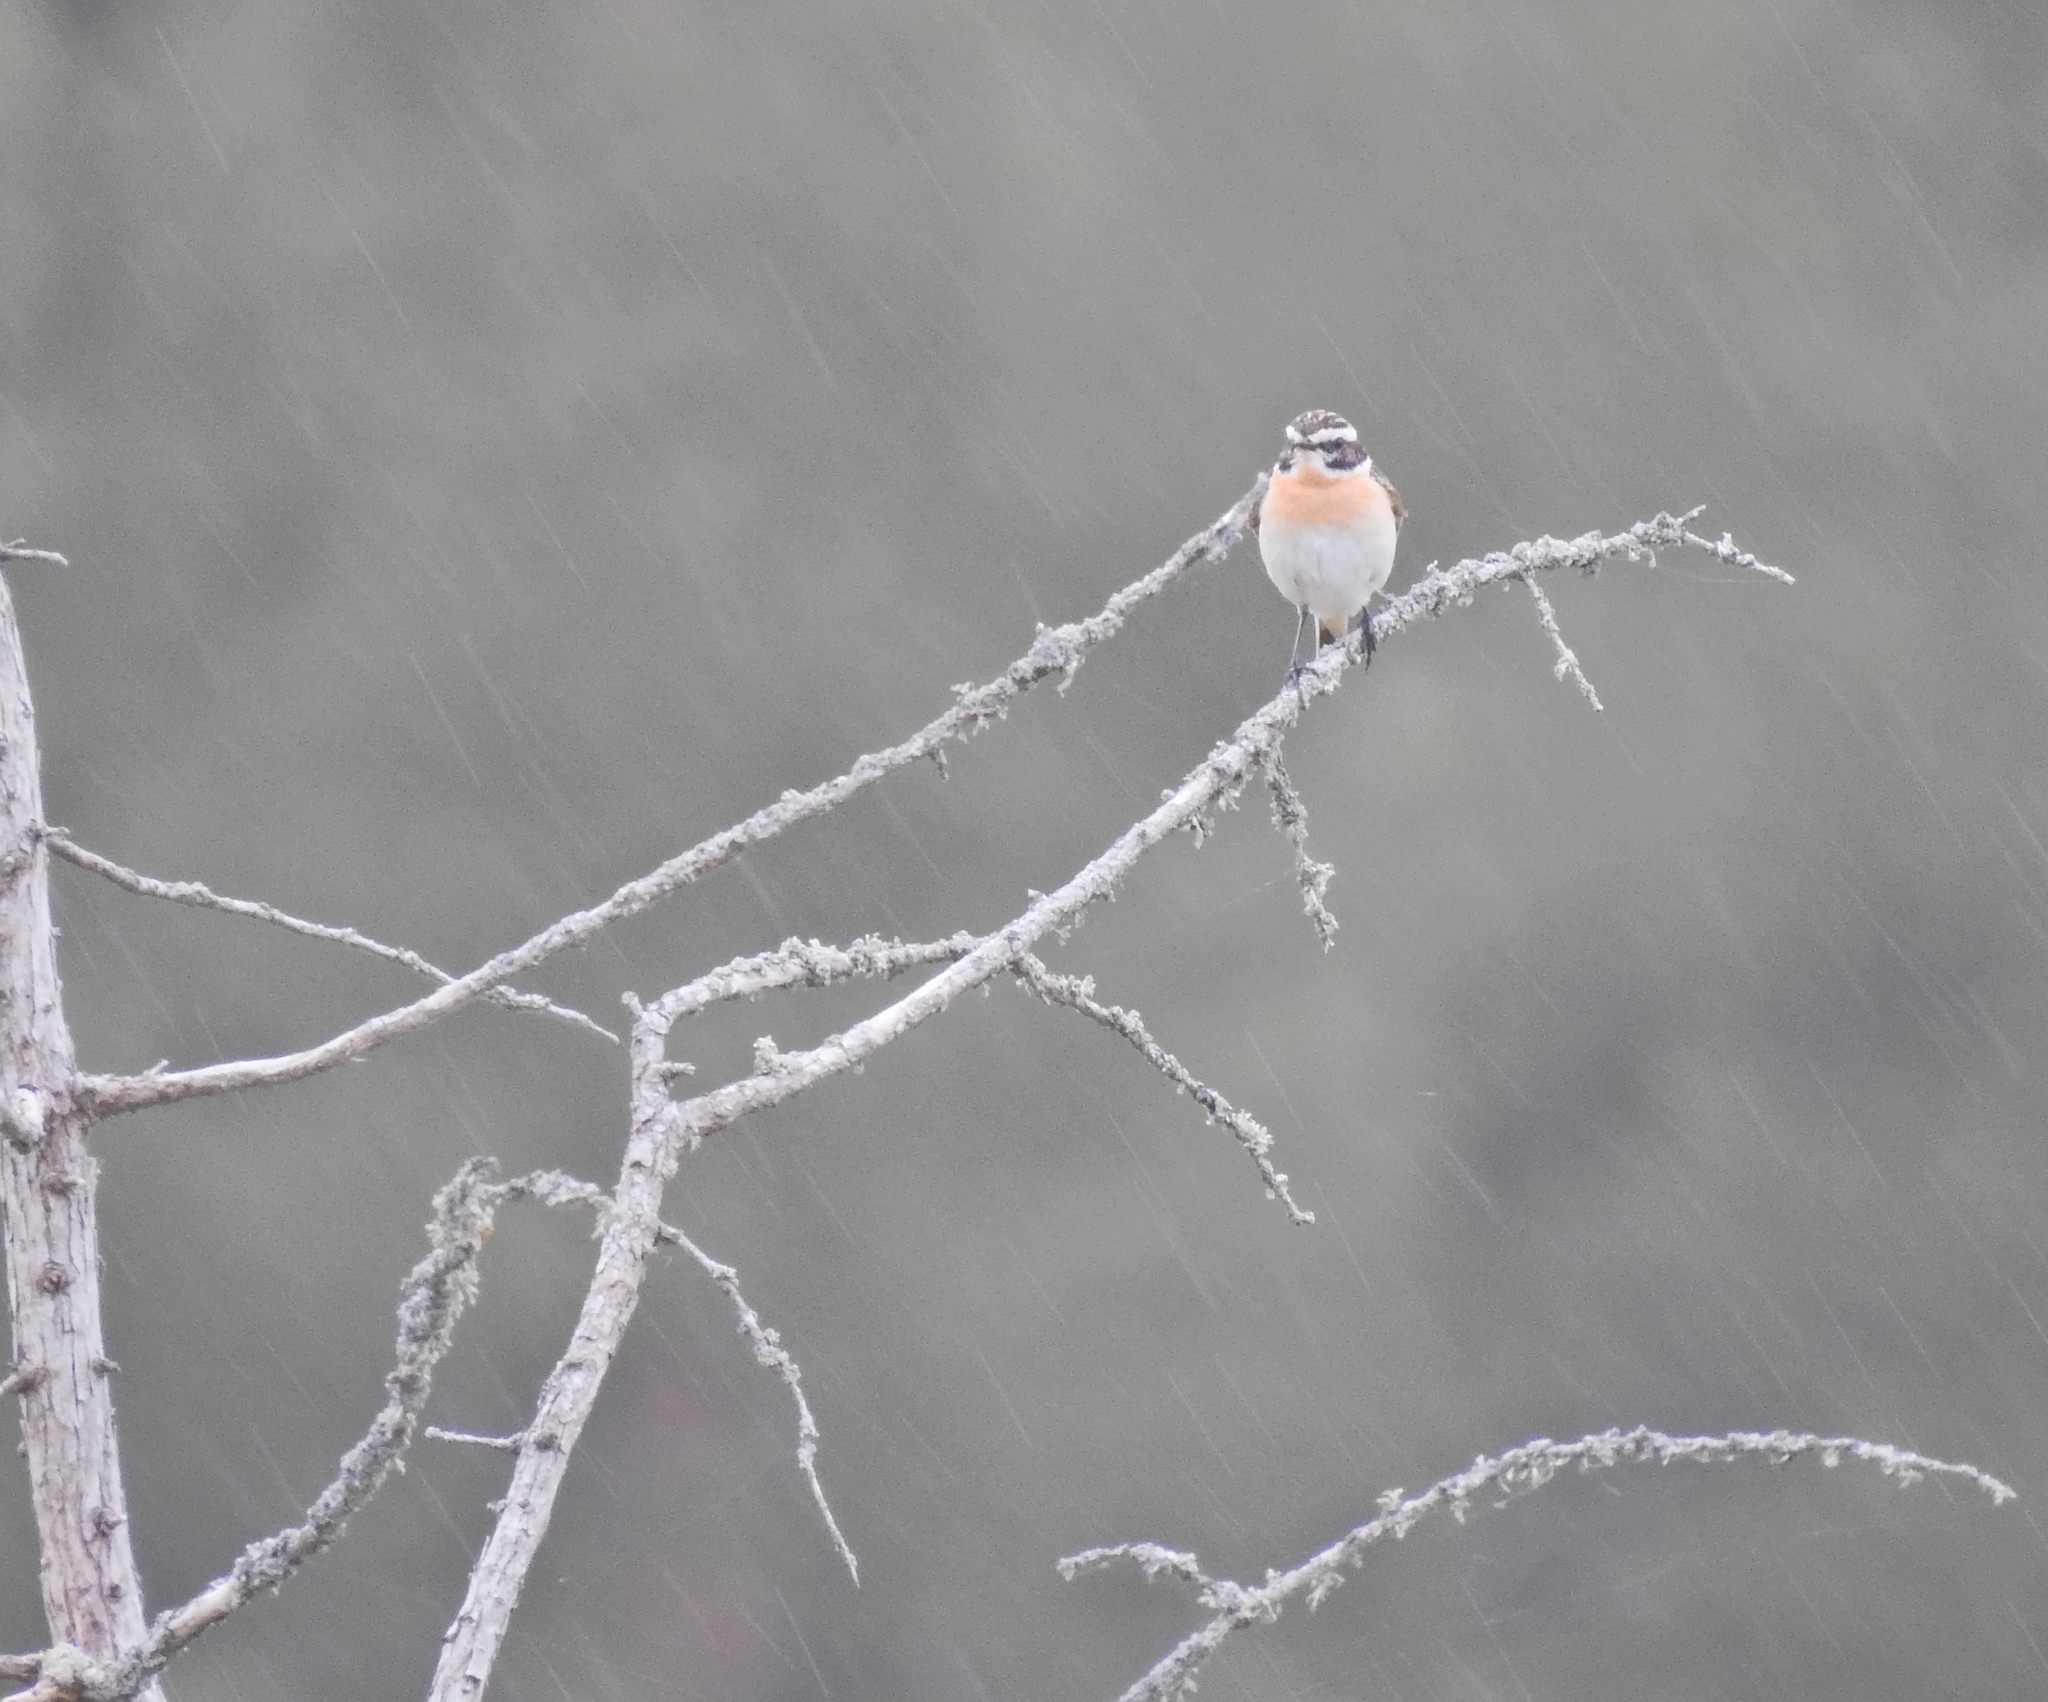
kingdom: Animalia
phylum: Chordata
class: Aves
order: Passeriformes
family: Muscicapidae
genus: Saxicola
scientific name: Saxicola rubetra
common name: Whinchat
